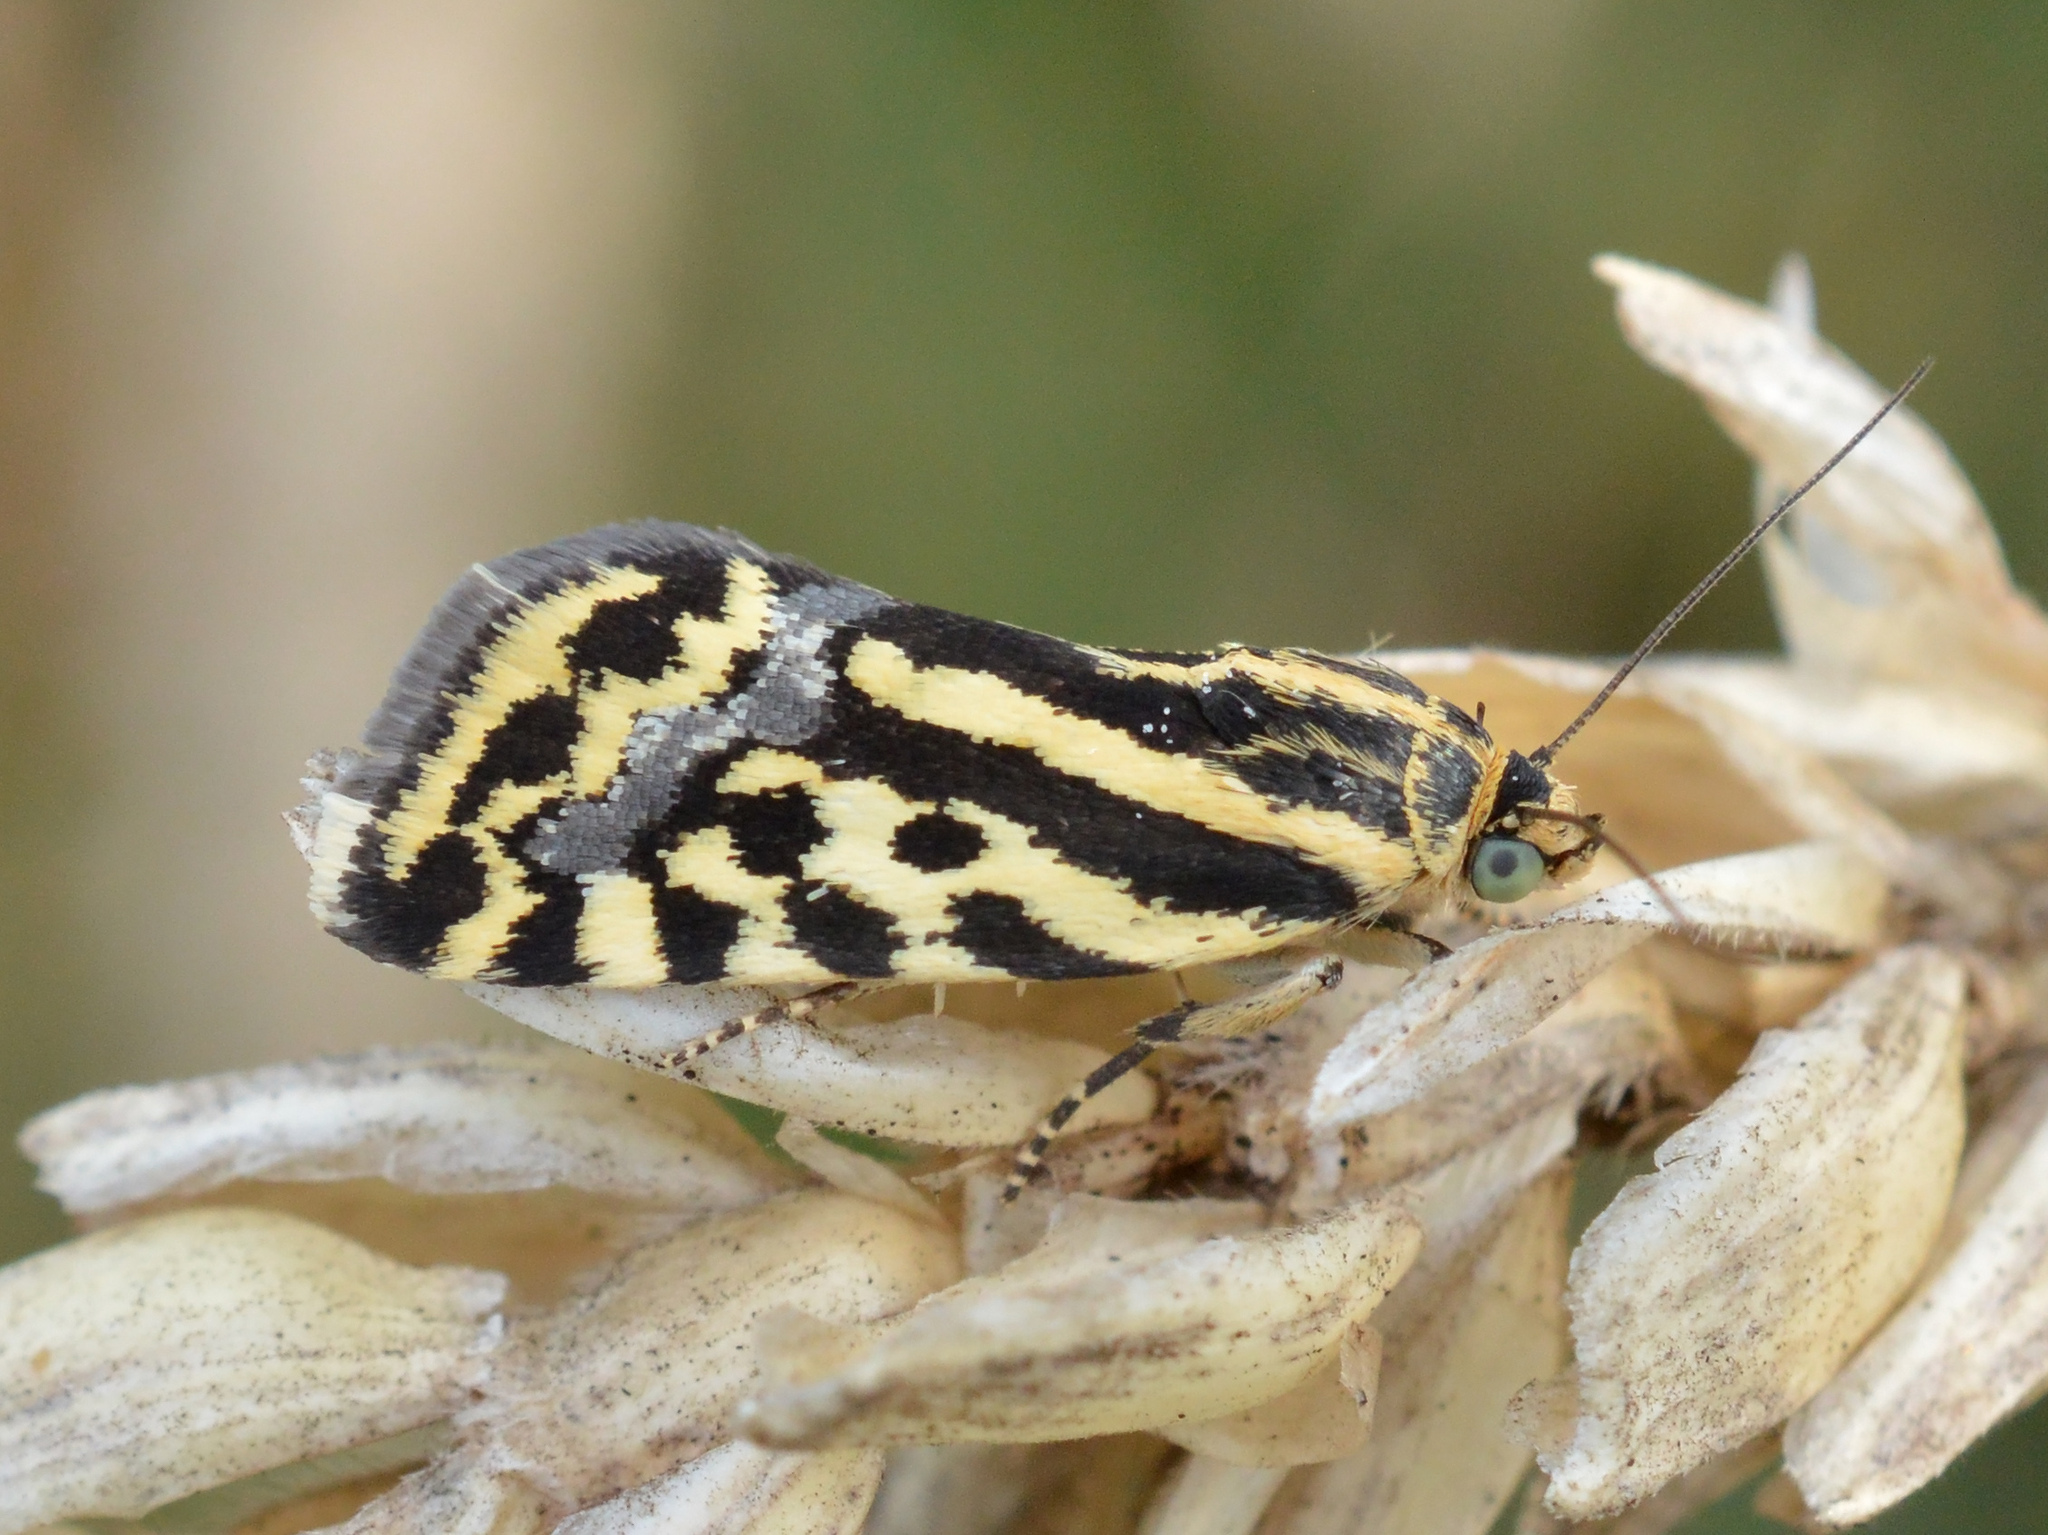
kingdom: Animalia
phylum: Arthropoda
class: Insecta
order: Lepidoptera
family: Noctuidae
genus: Acontia
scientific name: Acontia trabealis
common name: Spotted sulphur
